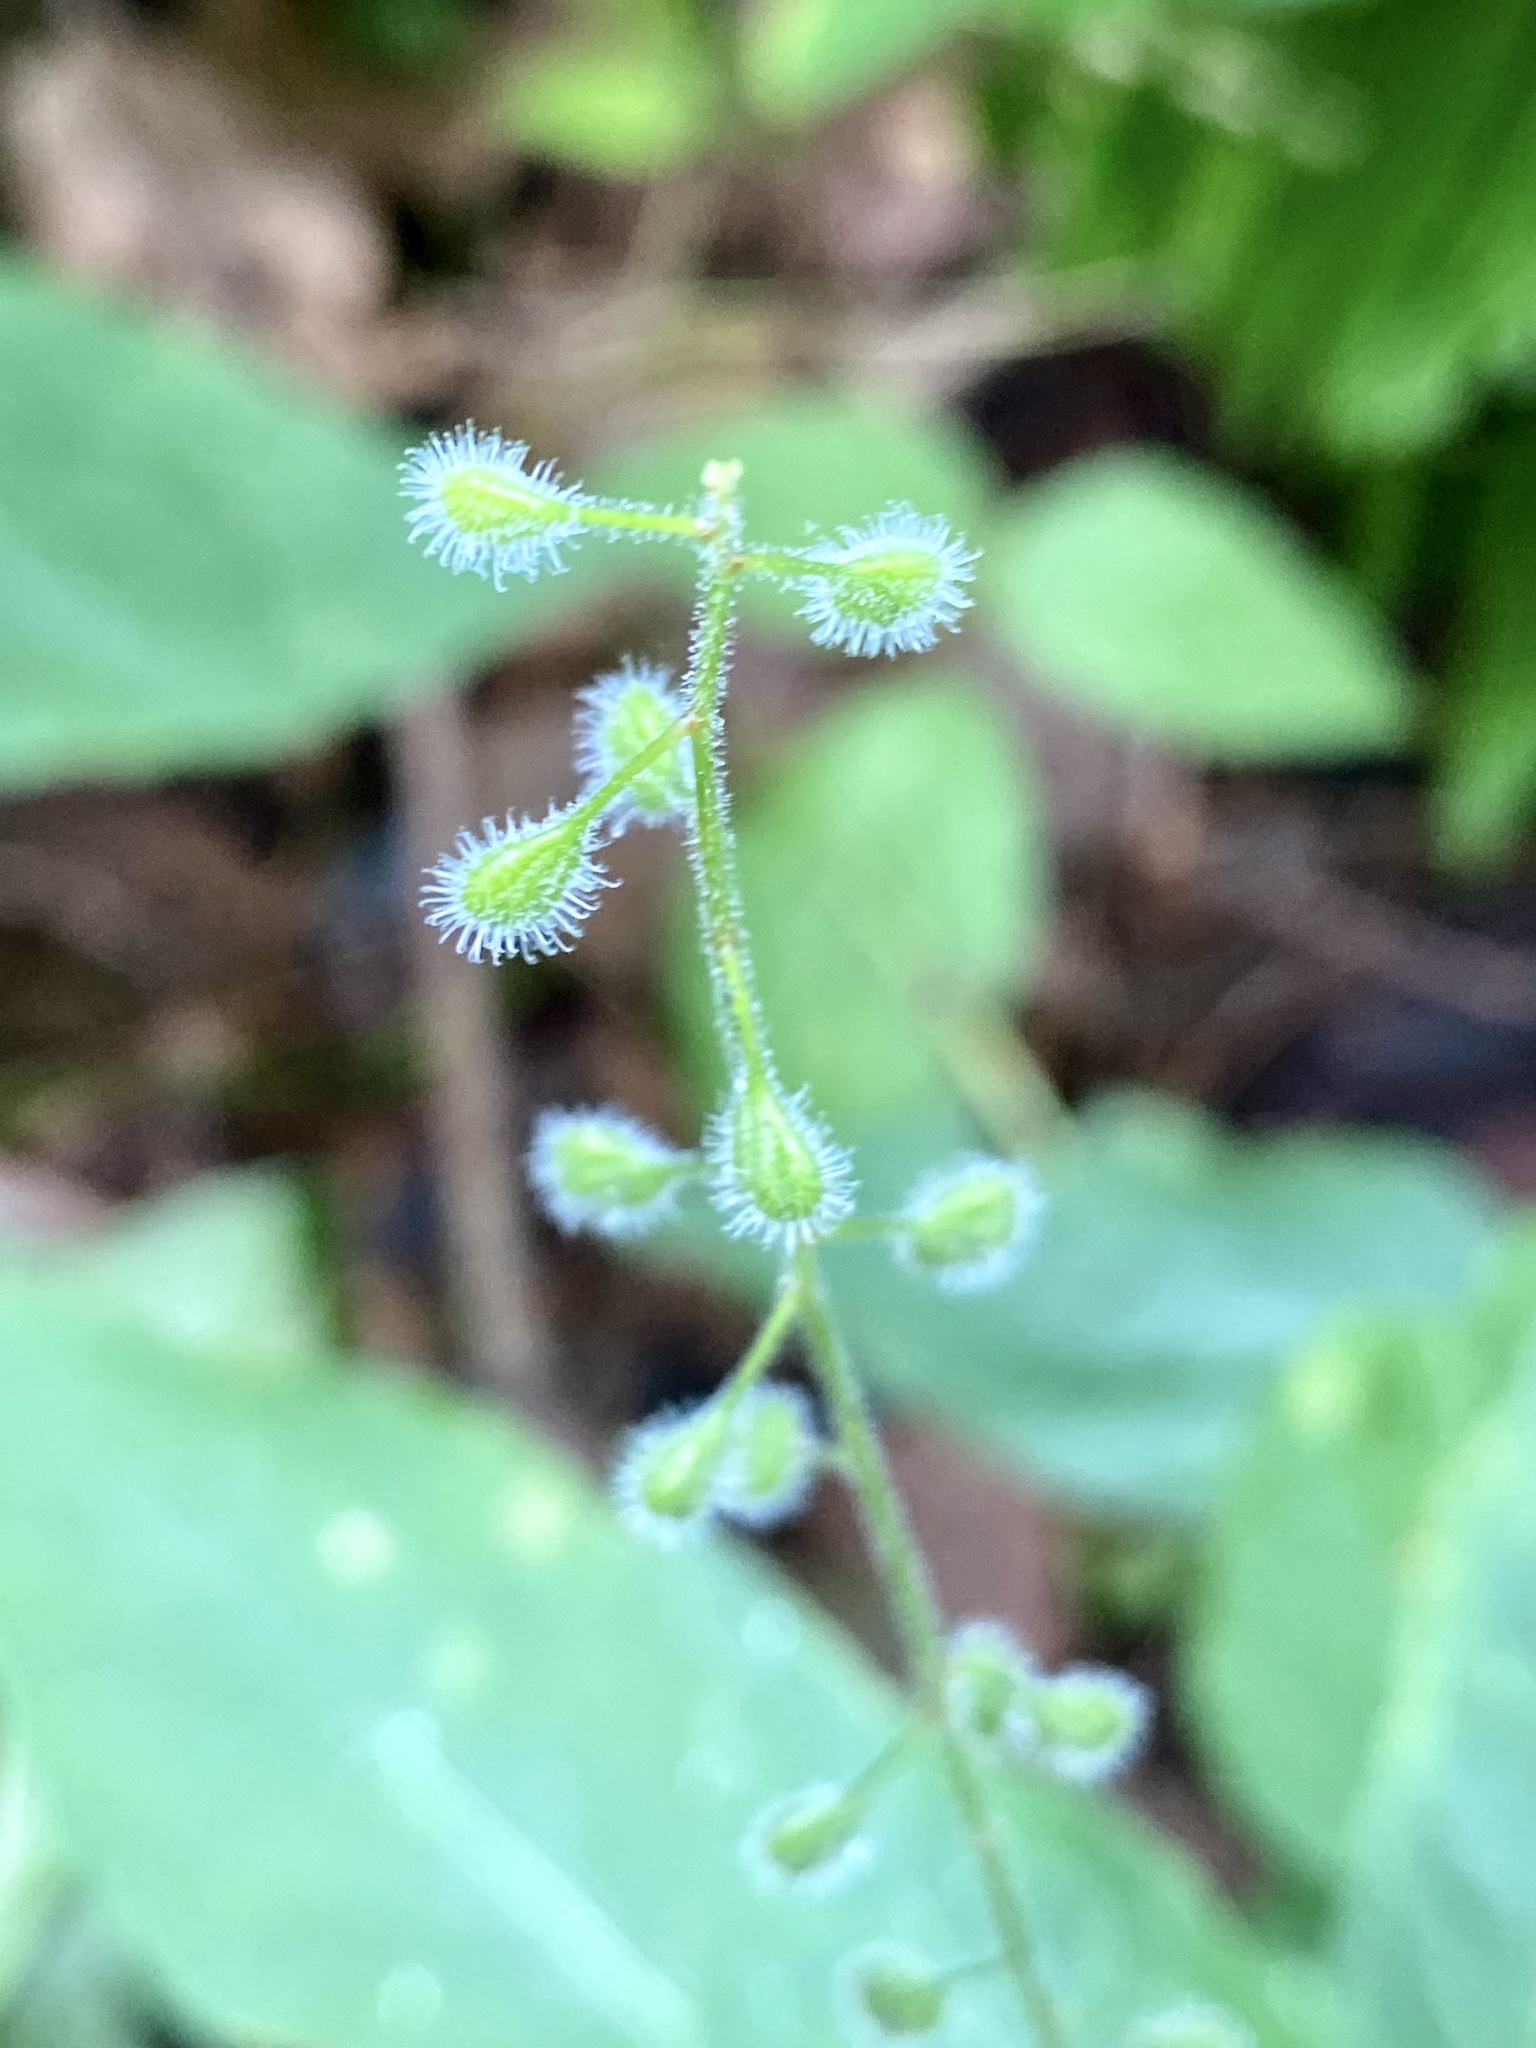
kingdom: Plantae
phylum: Tracheophyta
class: Magnoliopsida
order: Myrtales
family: Onagraceae
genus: Circaea
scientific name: Circaea canadensis
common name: Broad-leaved enchanter's nightshade
